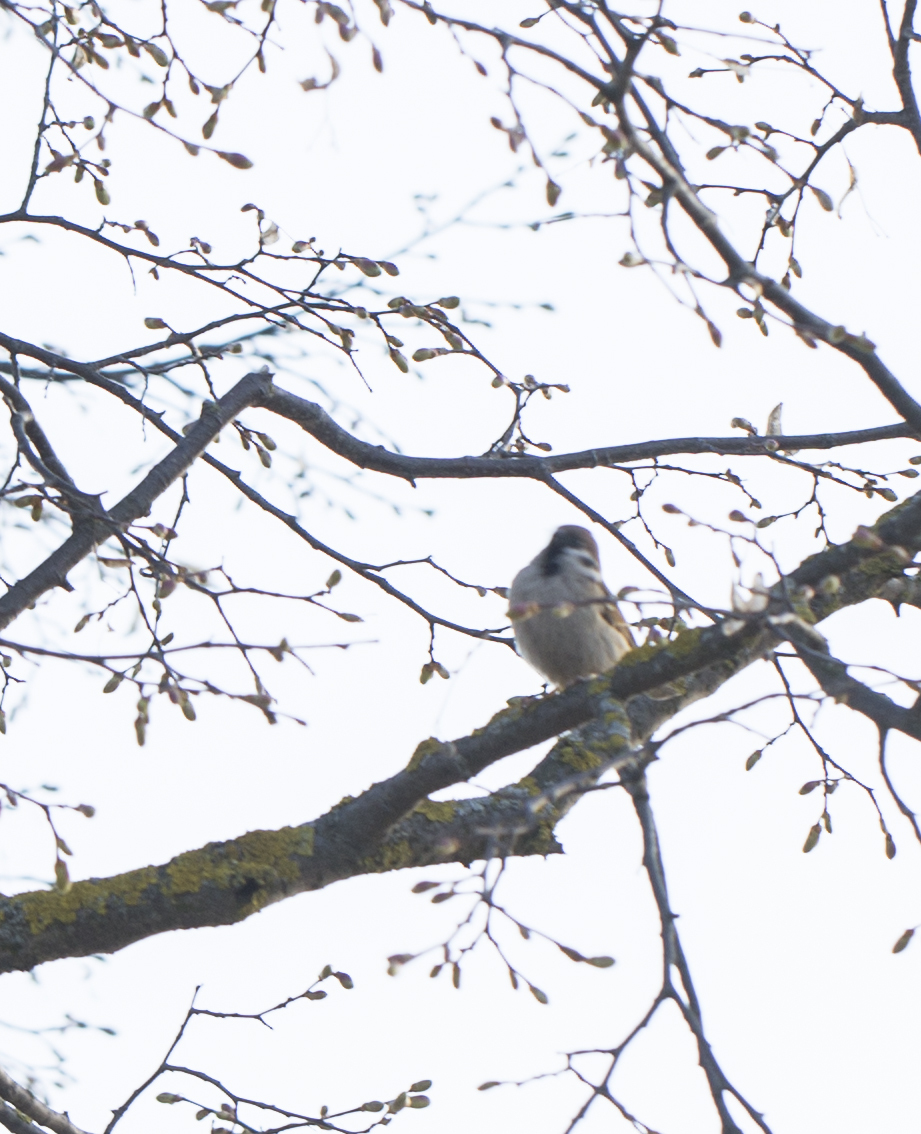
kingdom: Animalia
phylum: Chordata
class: Aves
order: Passeriformes
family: Passeridae
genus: Passer
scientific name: Passer montanus
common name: Eurasian tree sparrow
